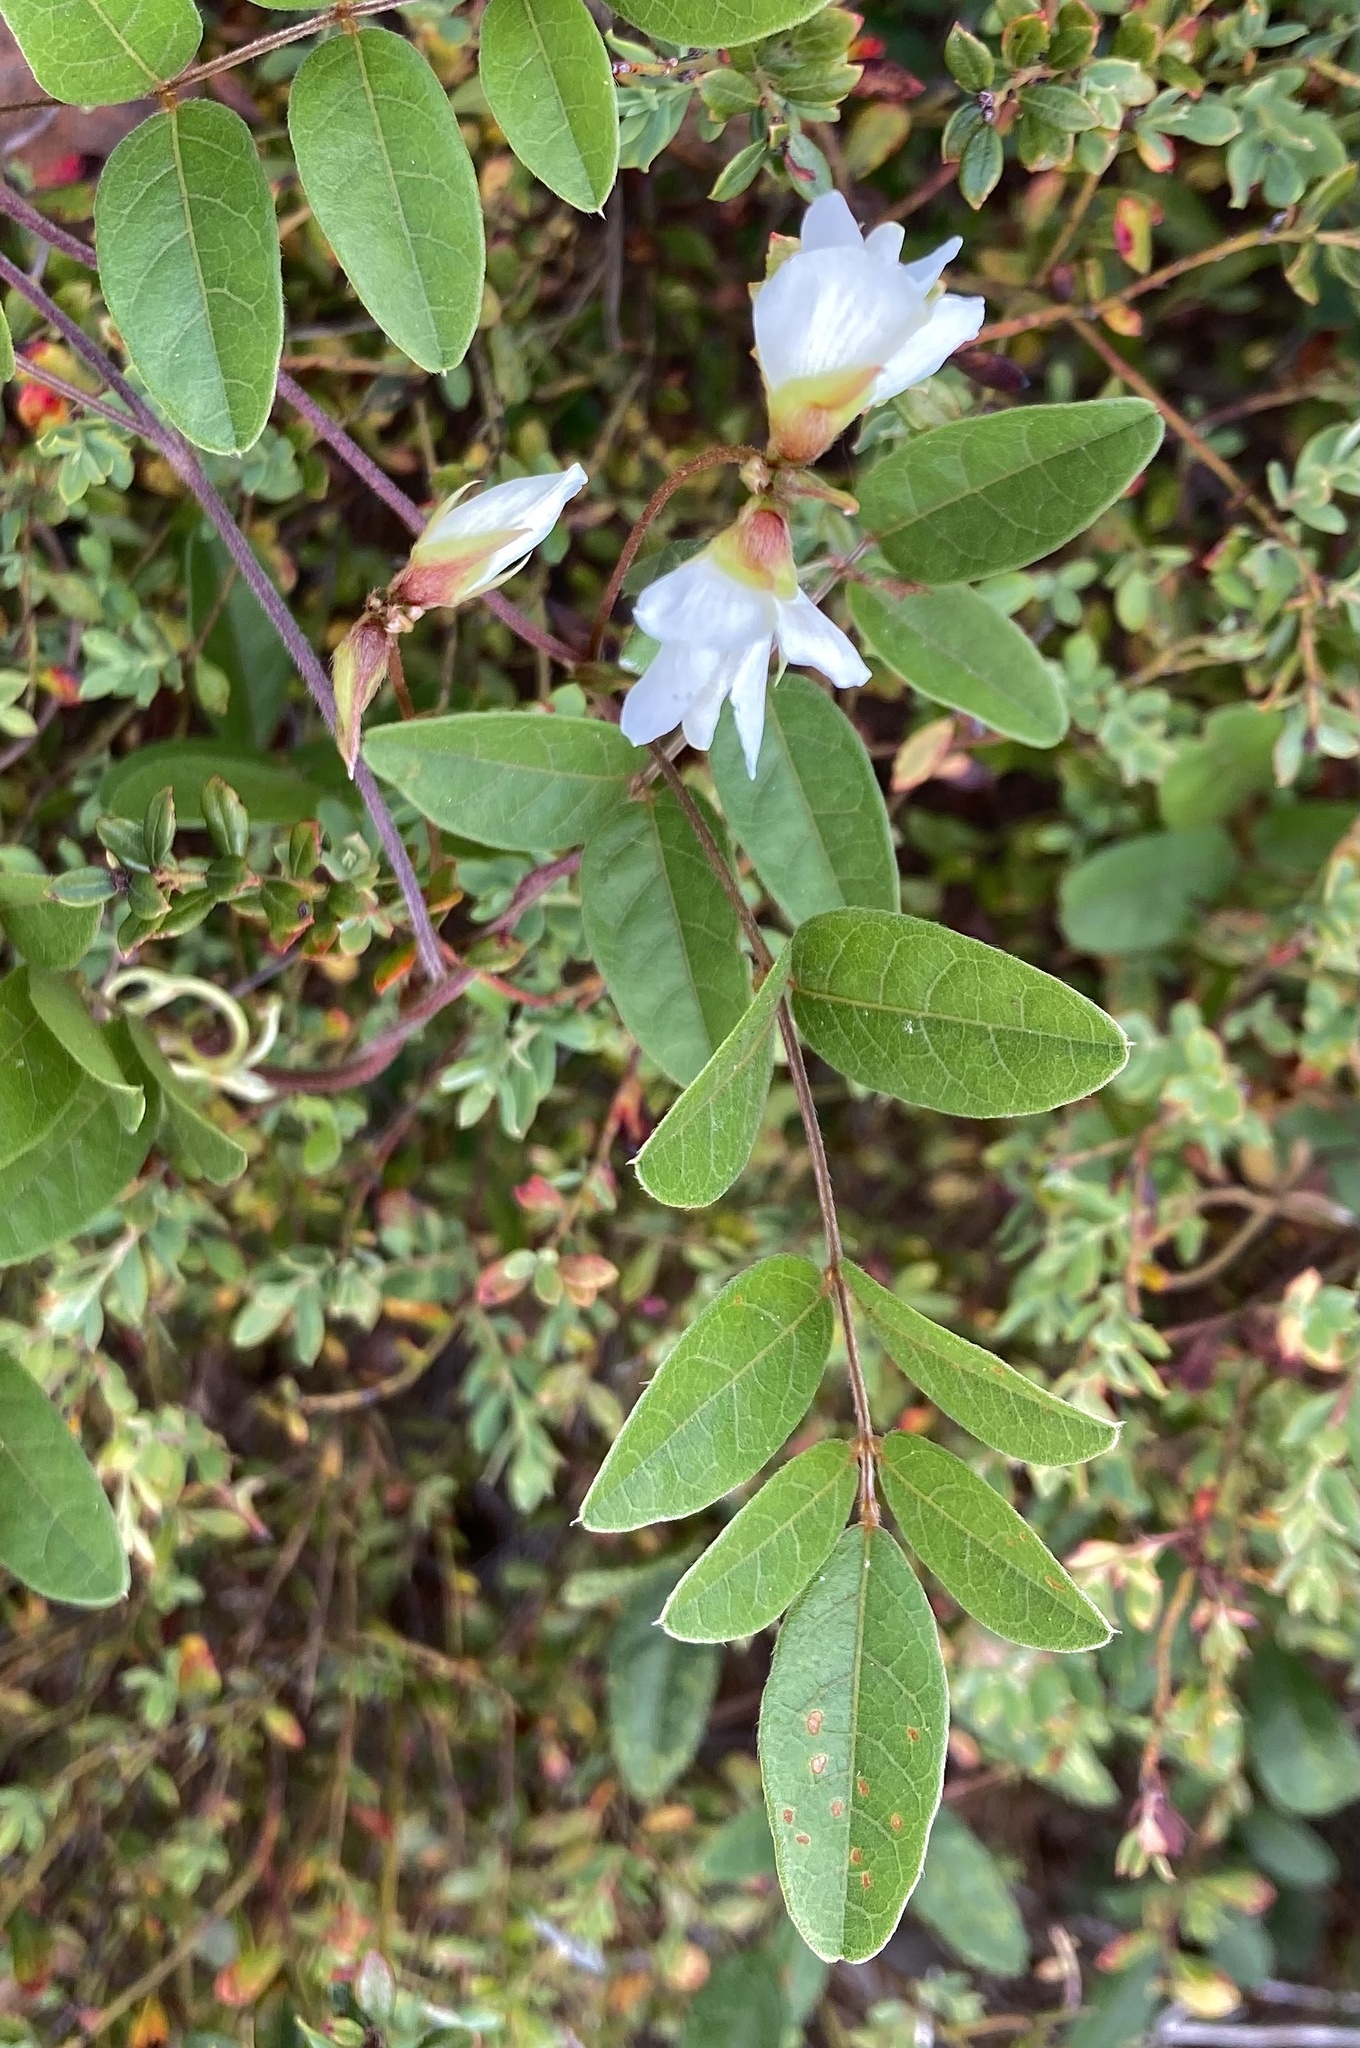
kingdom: Plantae
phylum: Tracheophyta
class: Magnoliopsida
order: Fabales
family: Fabaceae
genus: Galactia
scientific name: Galactia elliottii
